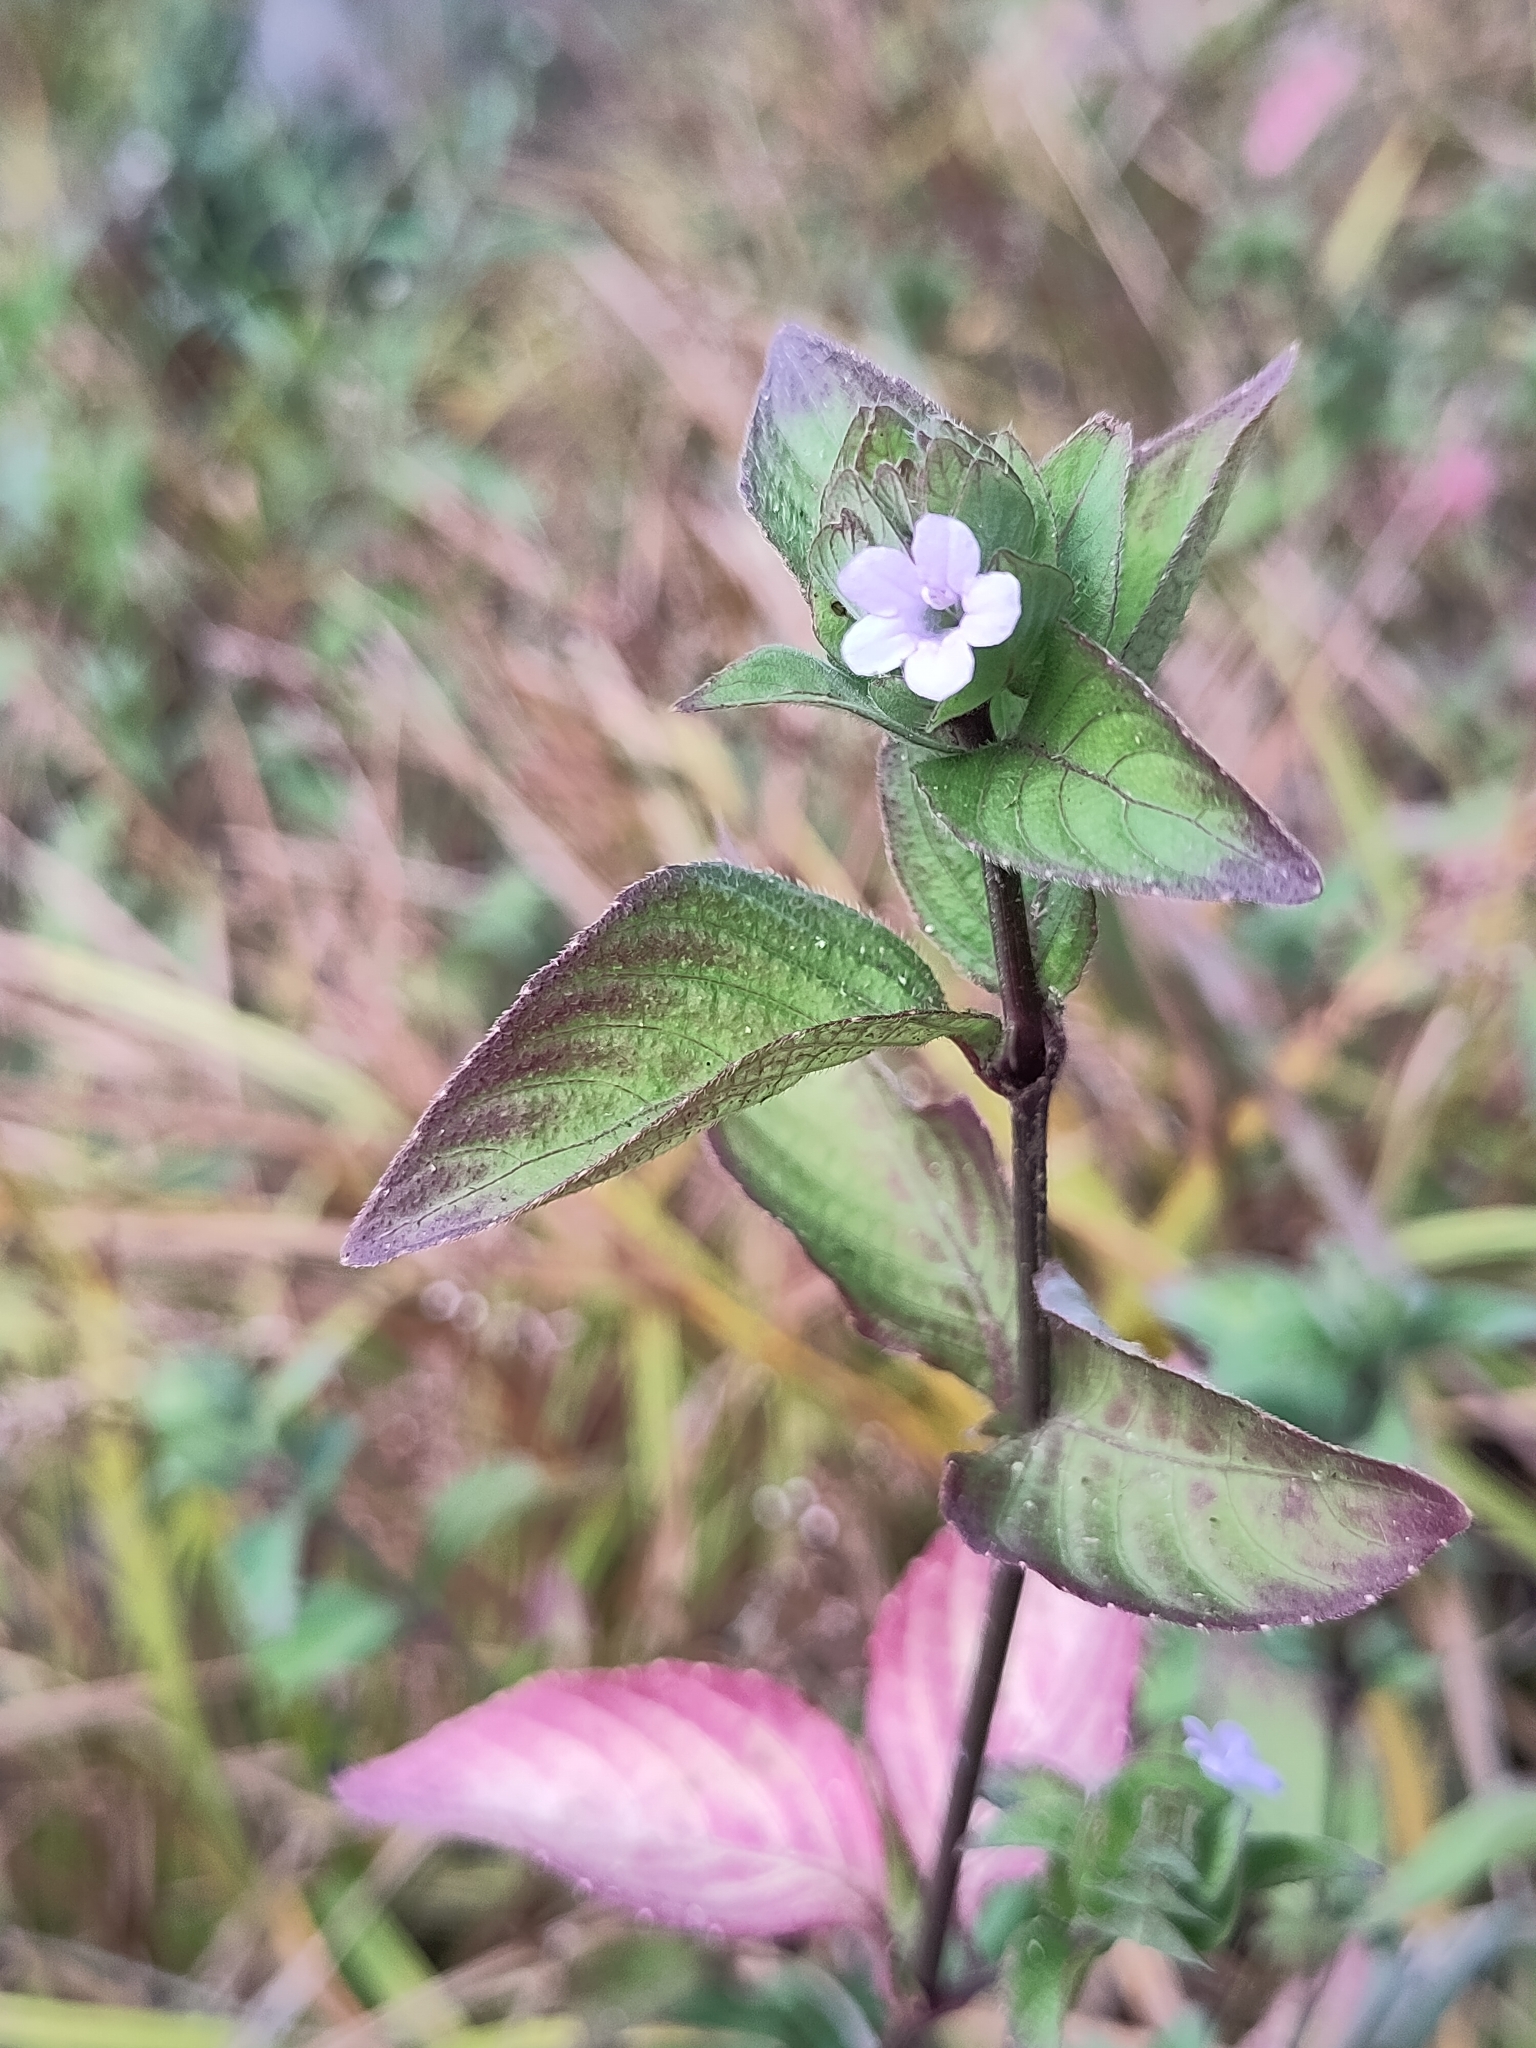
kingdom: Plantae
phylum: Tracheophyta
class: Magnoliopsida
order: Lamiales
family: Acanthaceae
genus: Ruellia
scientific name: Ruellia blechum
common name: Browne's blechum
